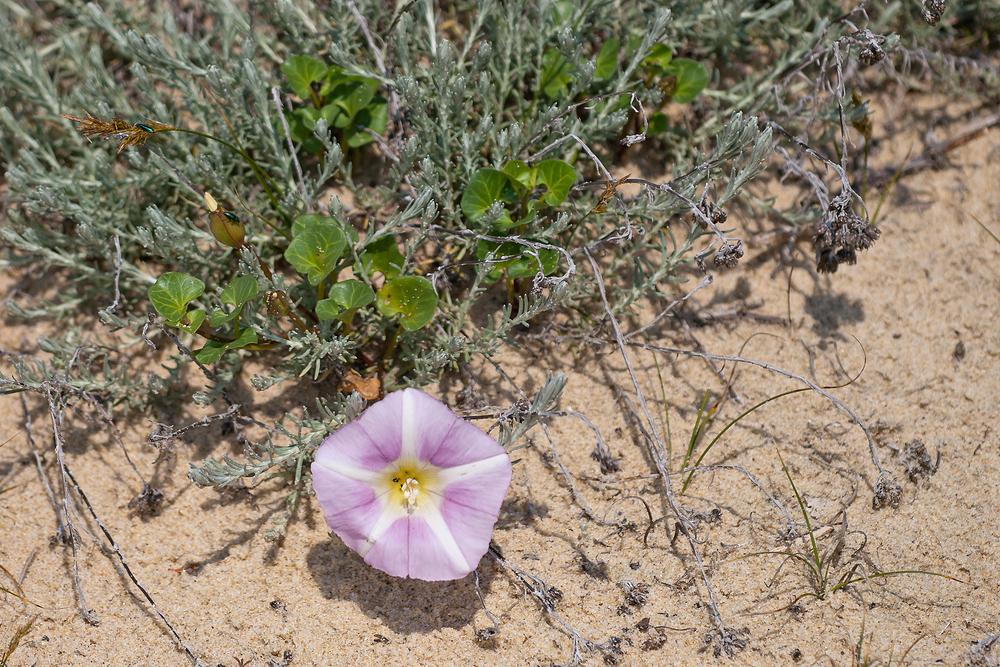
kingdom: Plantae
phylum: Tracheophyta
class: Magnoliopsida
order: Solanales
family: Convolvulaceae
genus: Calystegia
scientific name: Calystegia soldanella
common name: Sea bindweed
